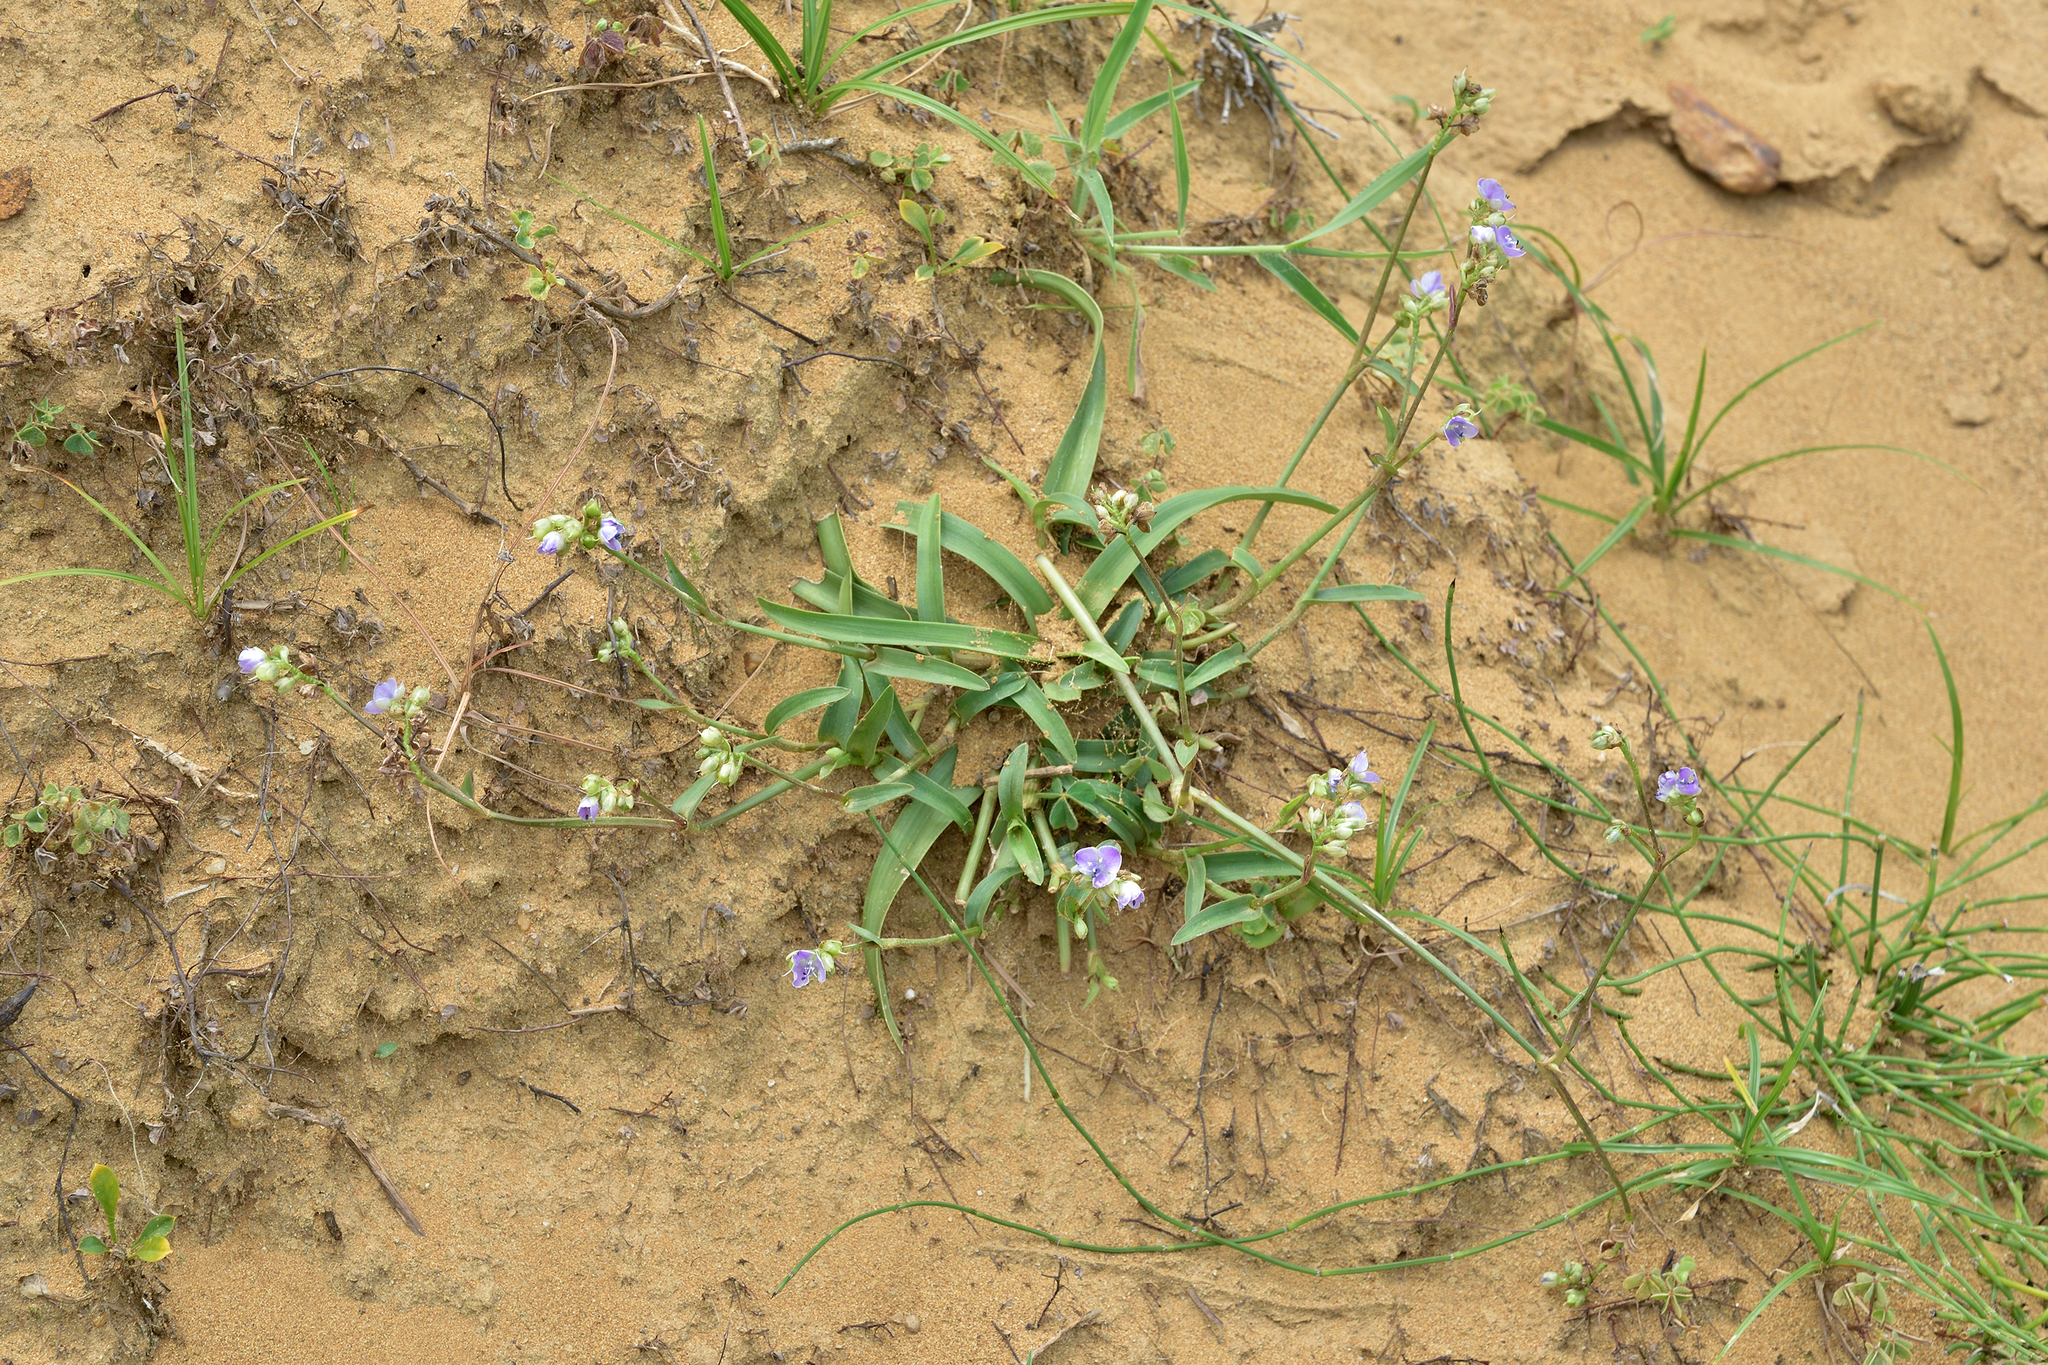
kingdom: Plantae
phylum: Tracheophyta
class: Liliopsida
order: Commelinales
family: Commelinaceae
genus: Murdannia
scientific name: Murdannia loriformis
